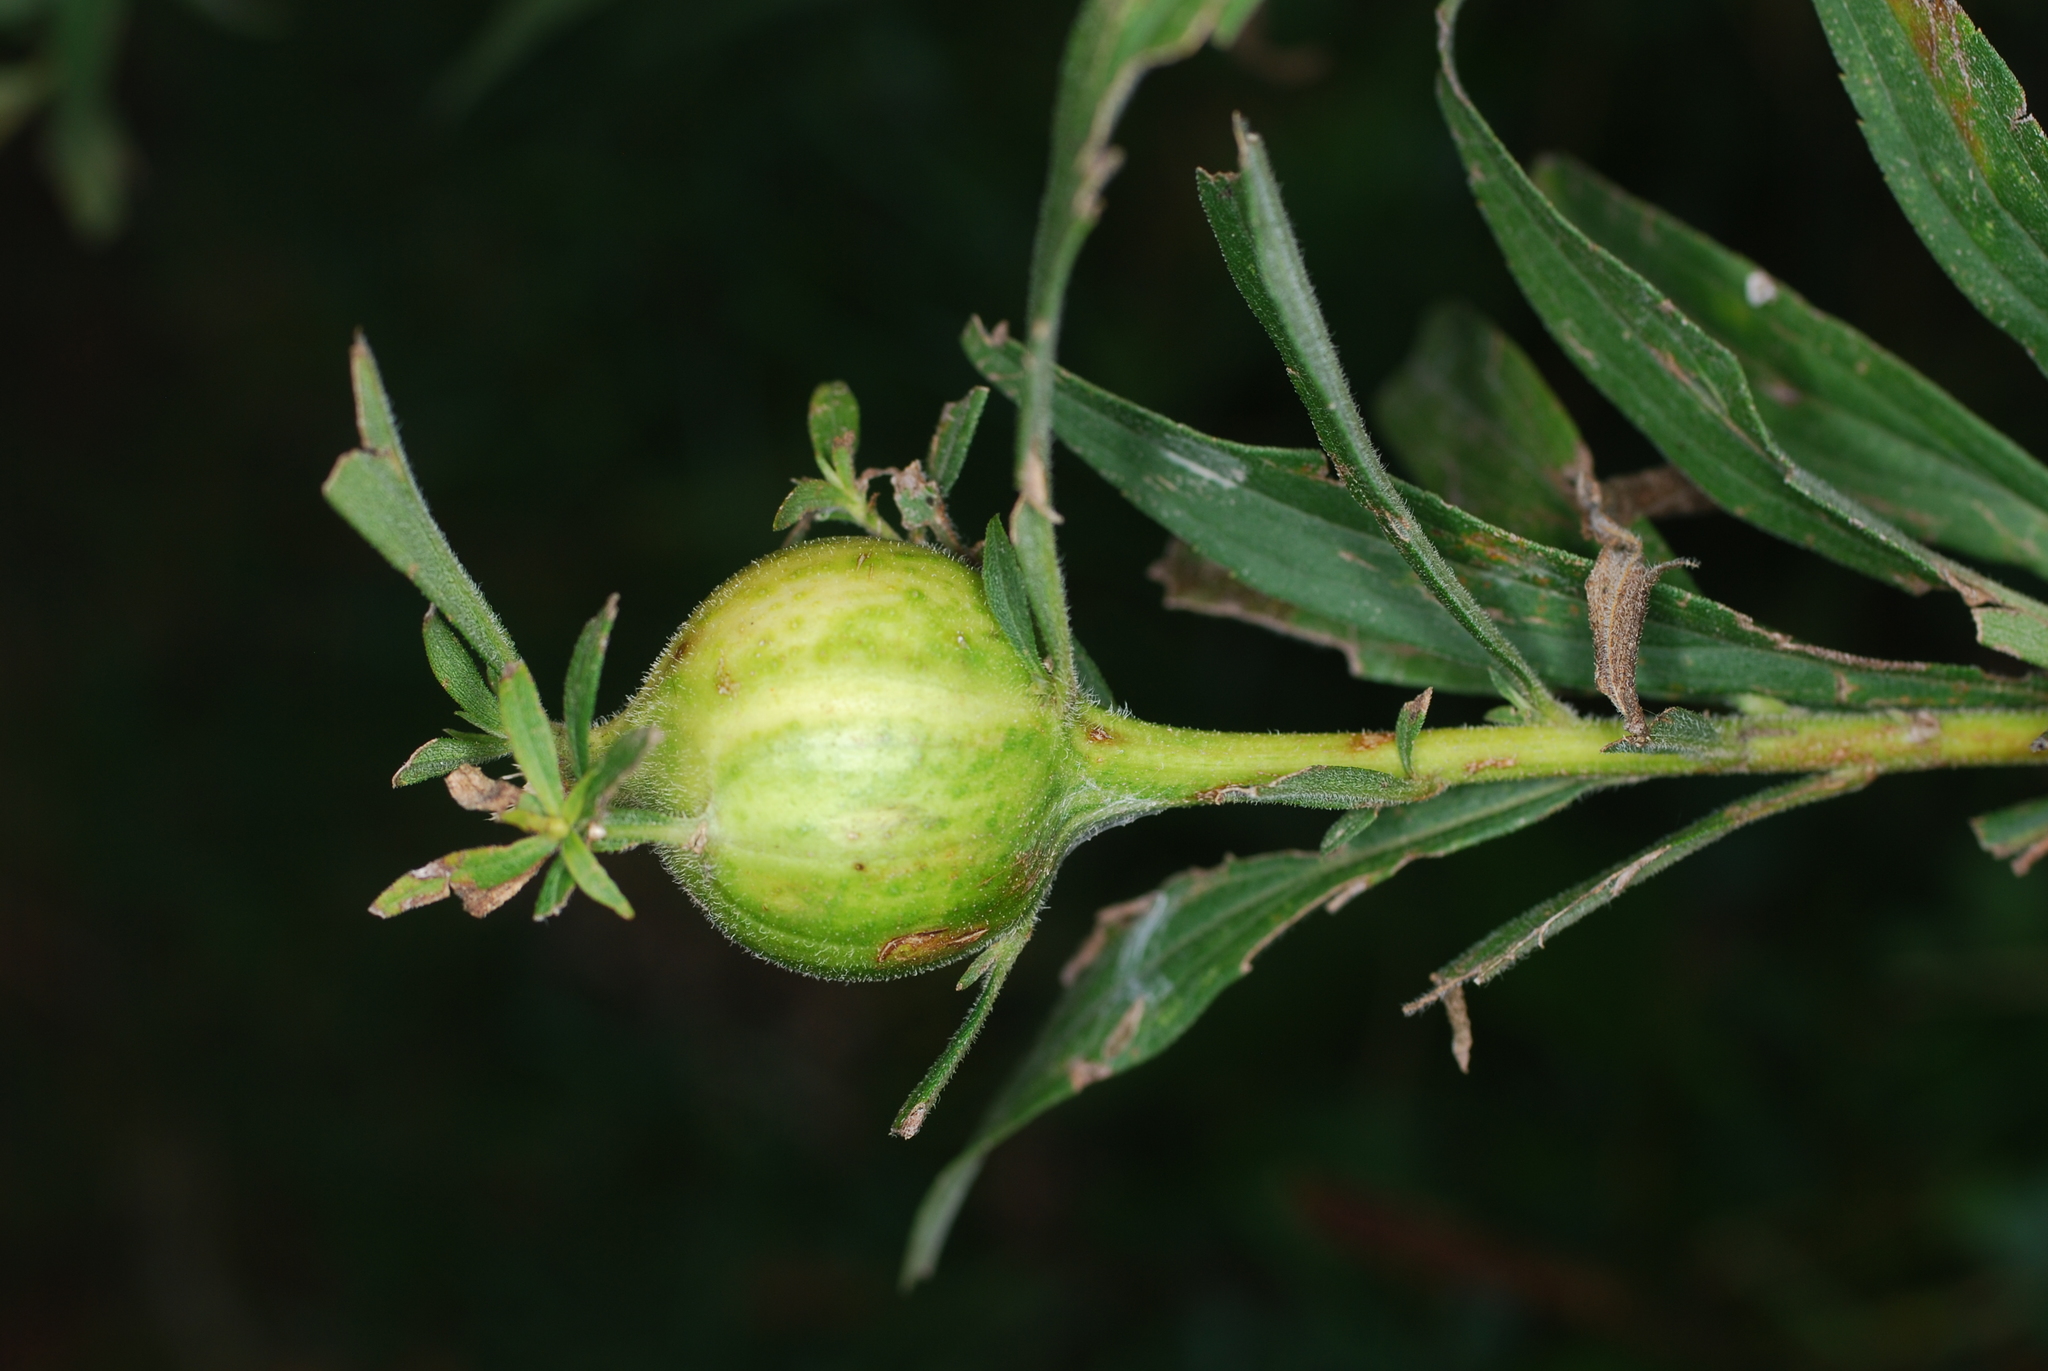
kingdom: Animalia
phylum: Arthropoda
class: Insecta
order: Diptera
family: Tephritidae
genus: Eurosta
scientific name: Eurosta solidaginis
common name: Goldenrod gall fly
